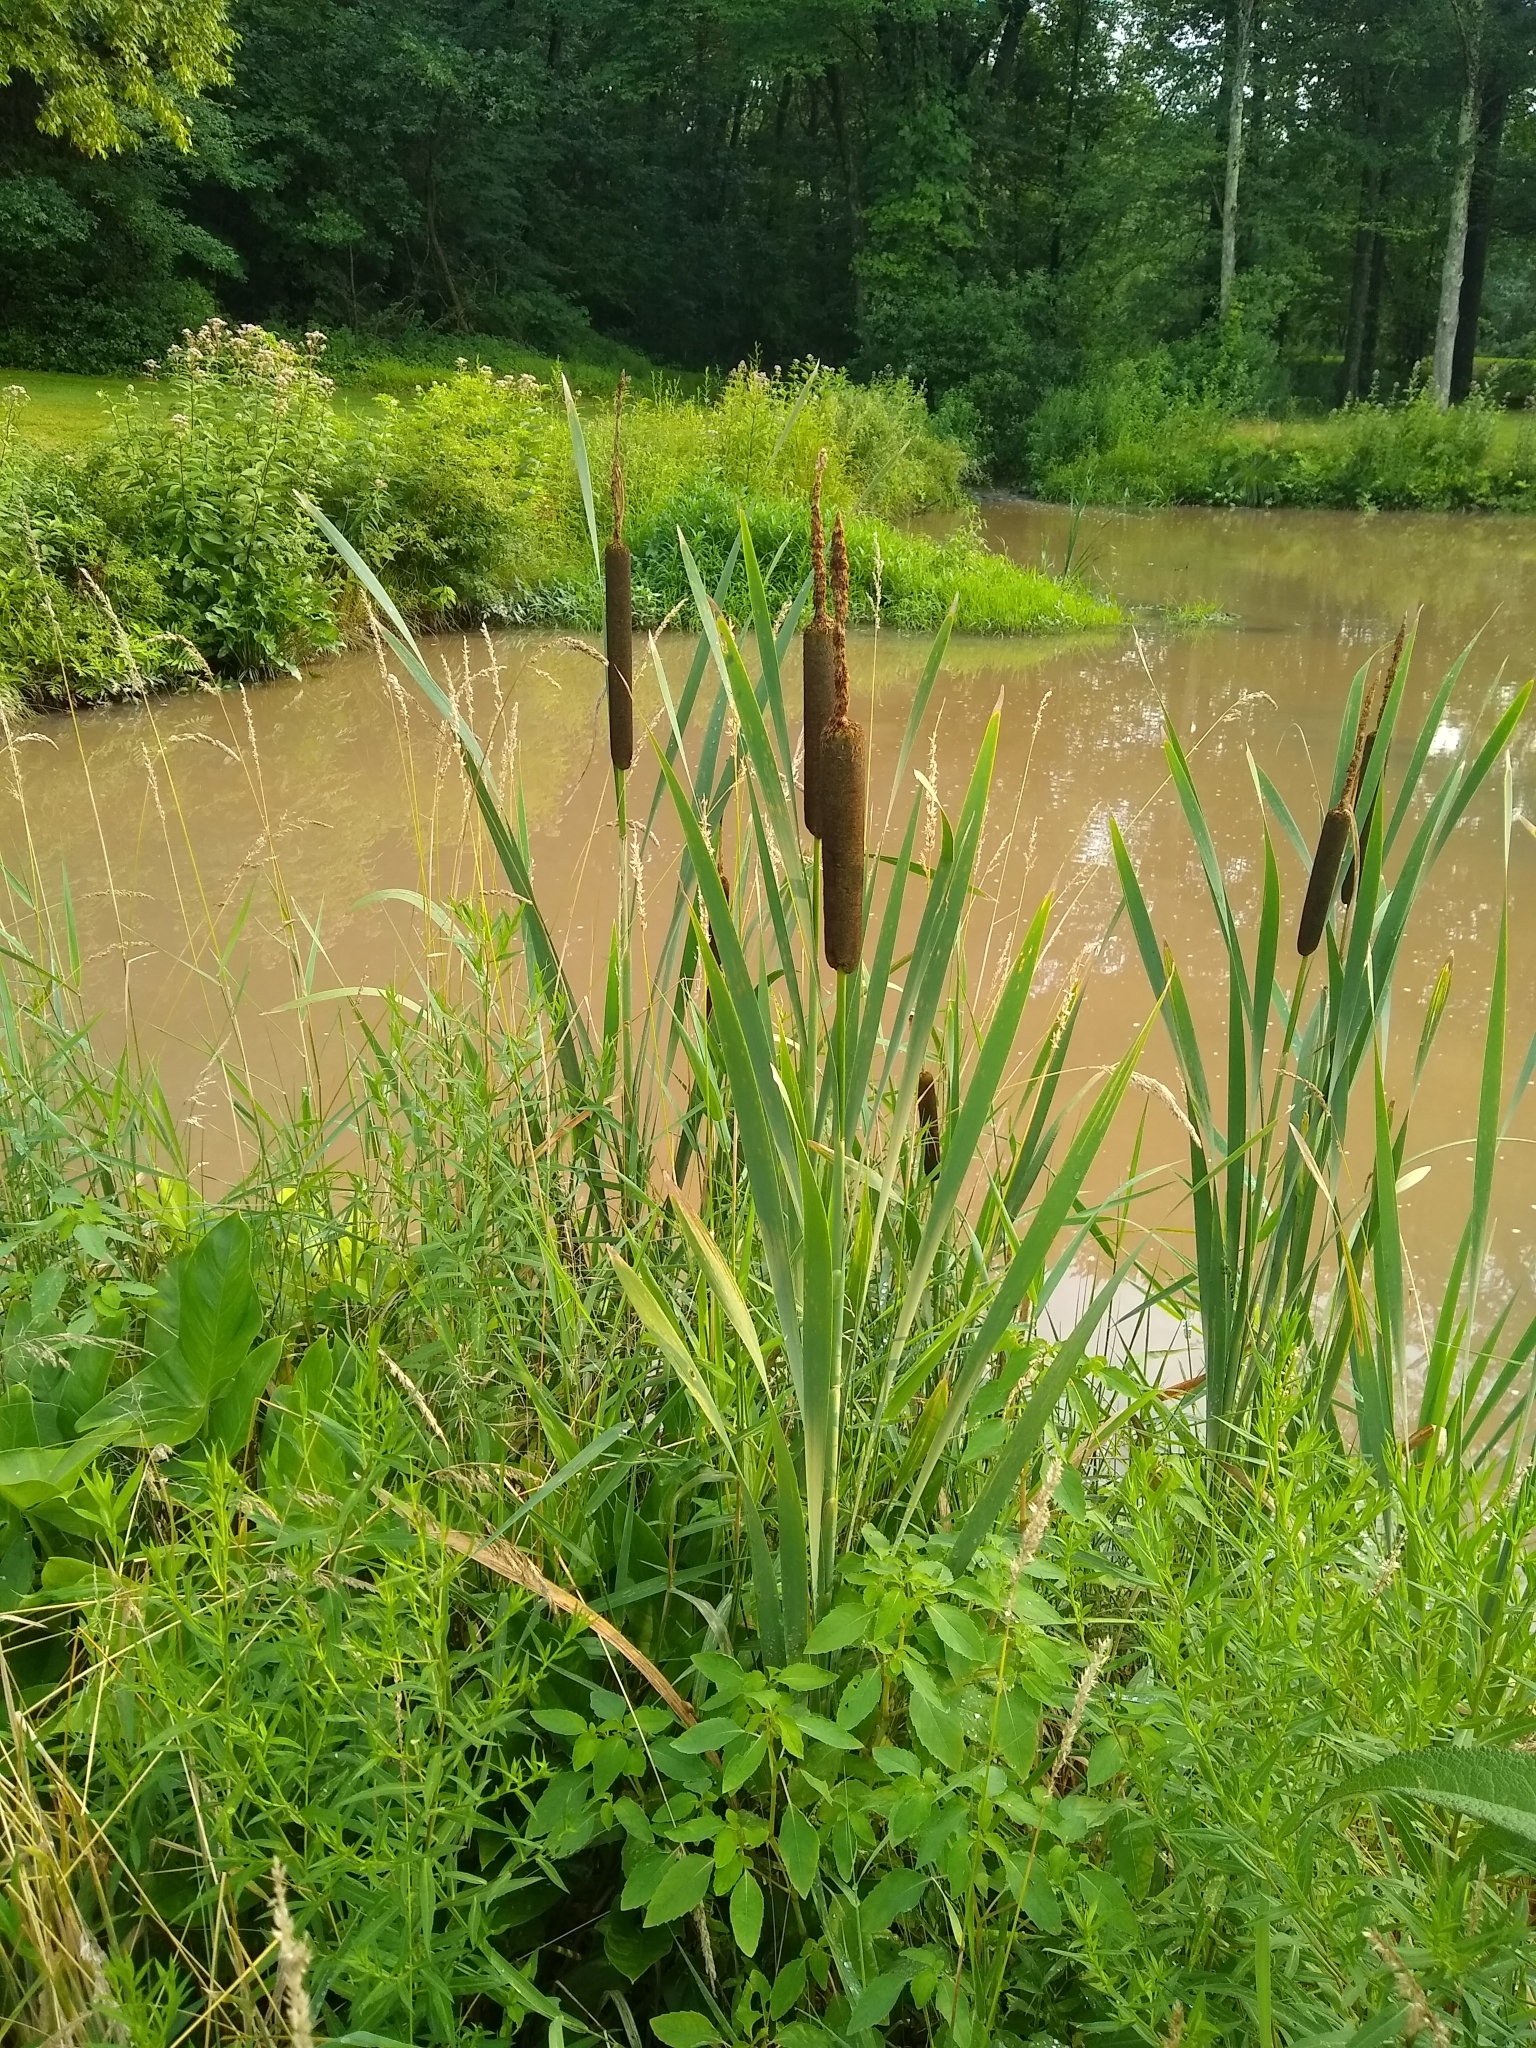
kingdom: Plantae
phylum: Tracheophyta
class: Liliopsida
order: Poales
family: Typhaceae
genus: Typha
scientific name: Typha latifolia
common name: Broadleaf cattail
